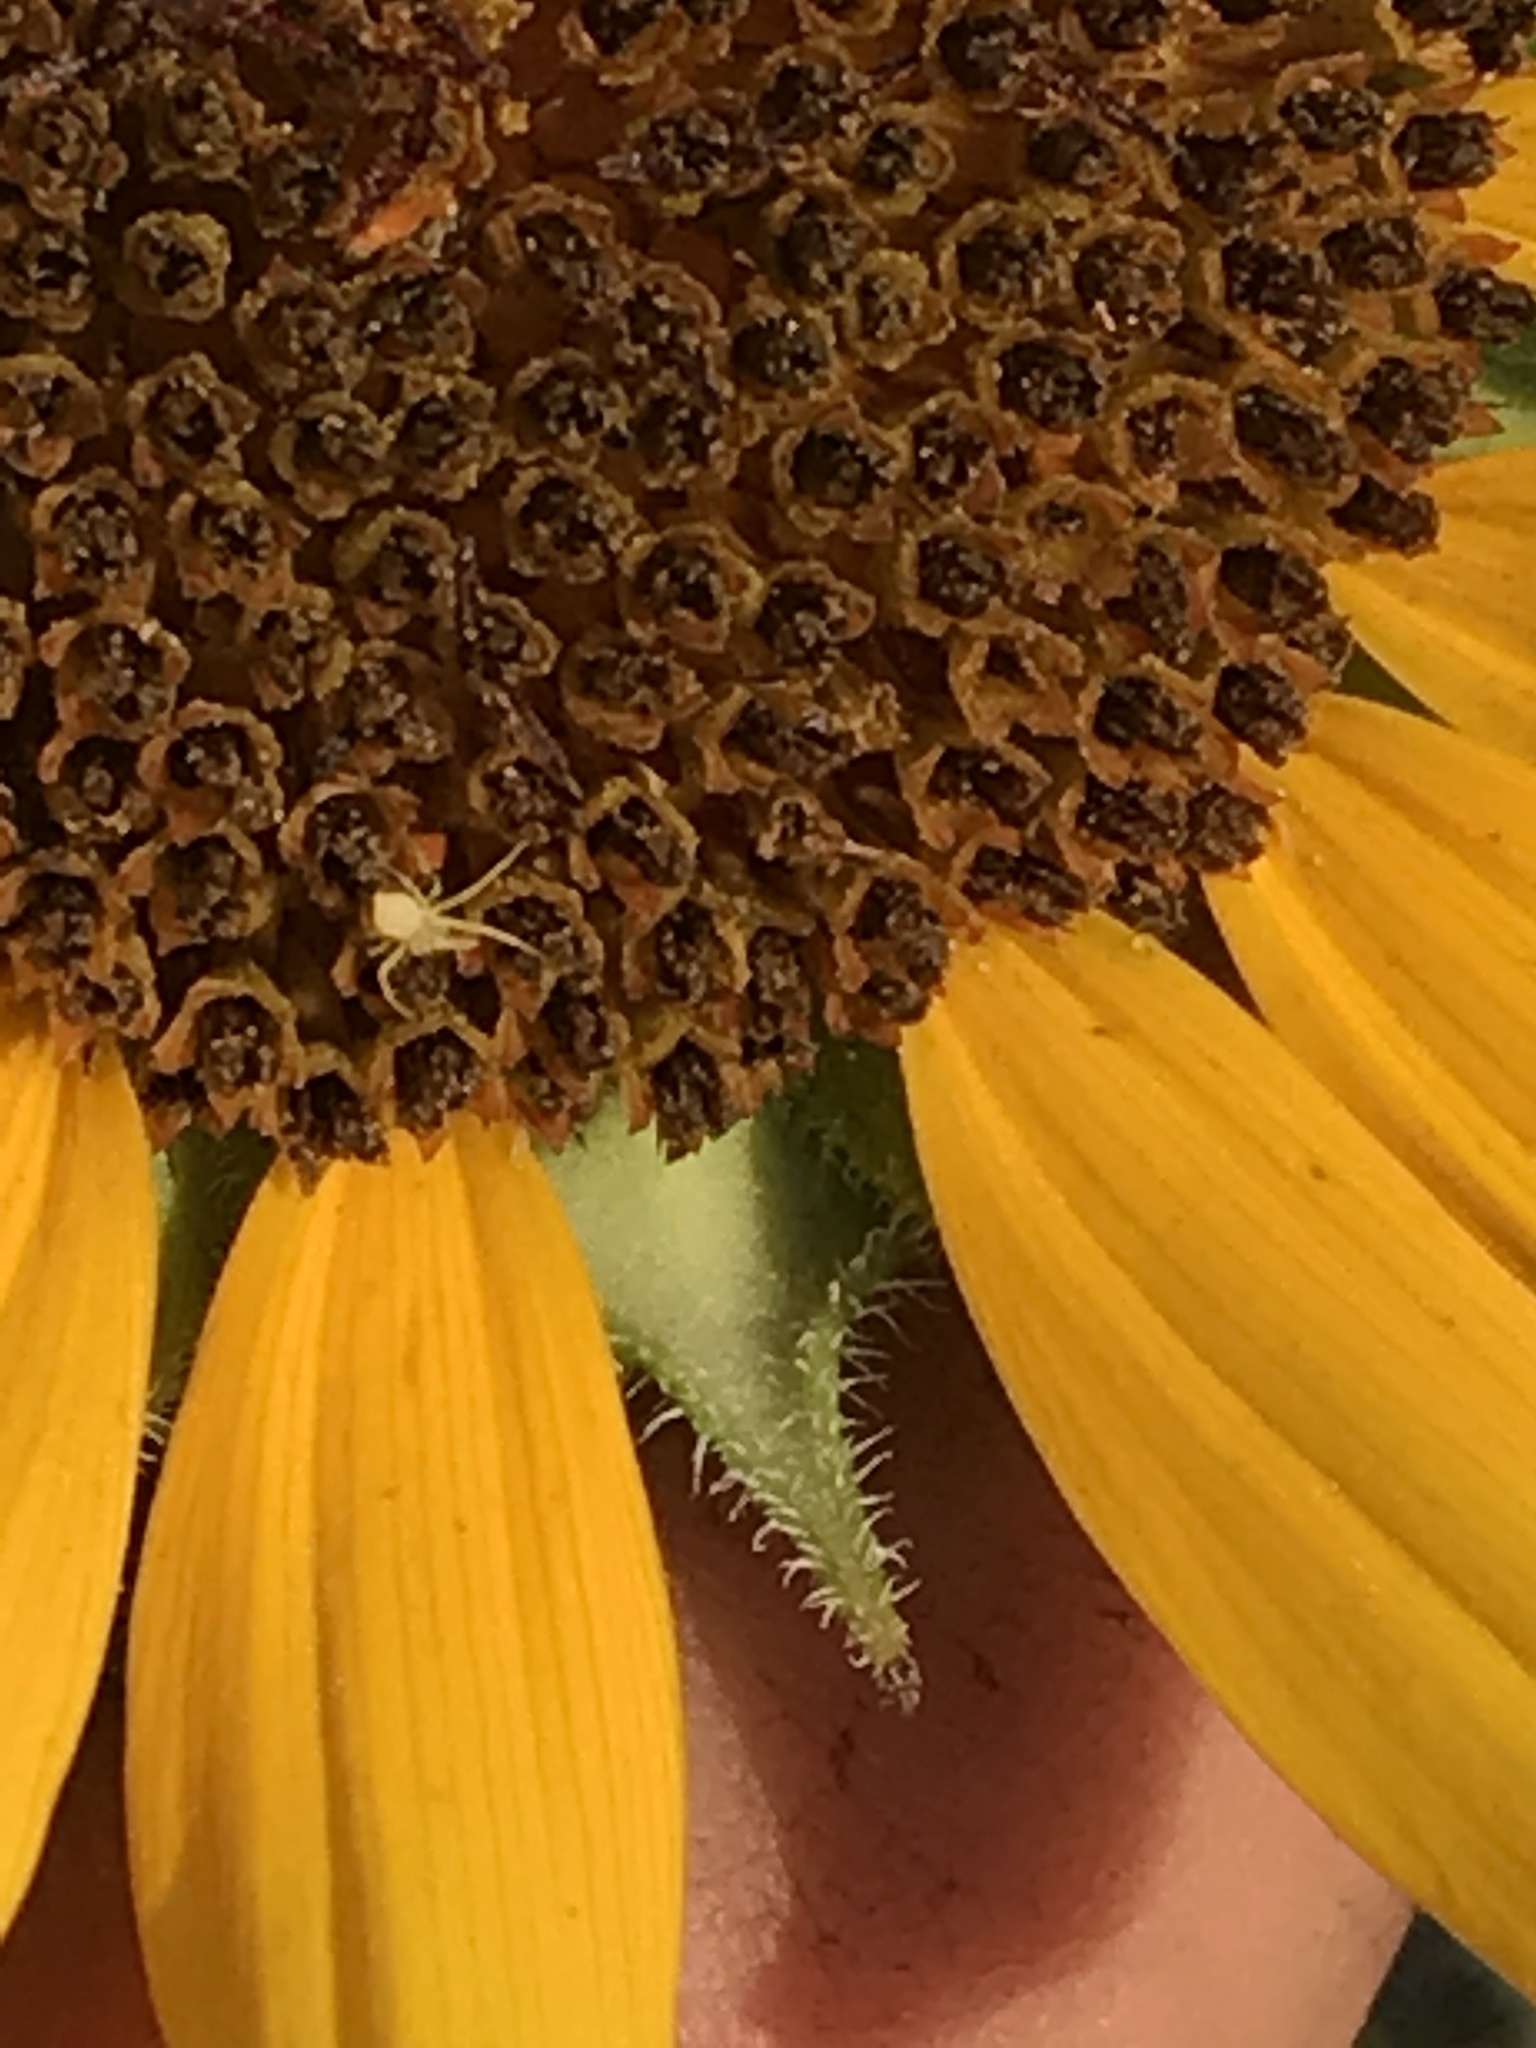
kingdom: Animalia
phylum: Arthropoda
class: Arachnida
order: Araneae
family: Thomisidae
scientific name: Thomisidae
